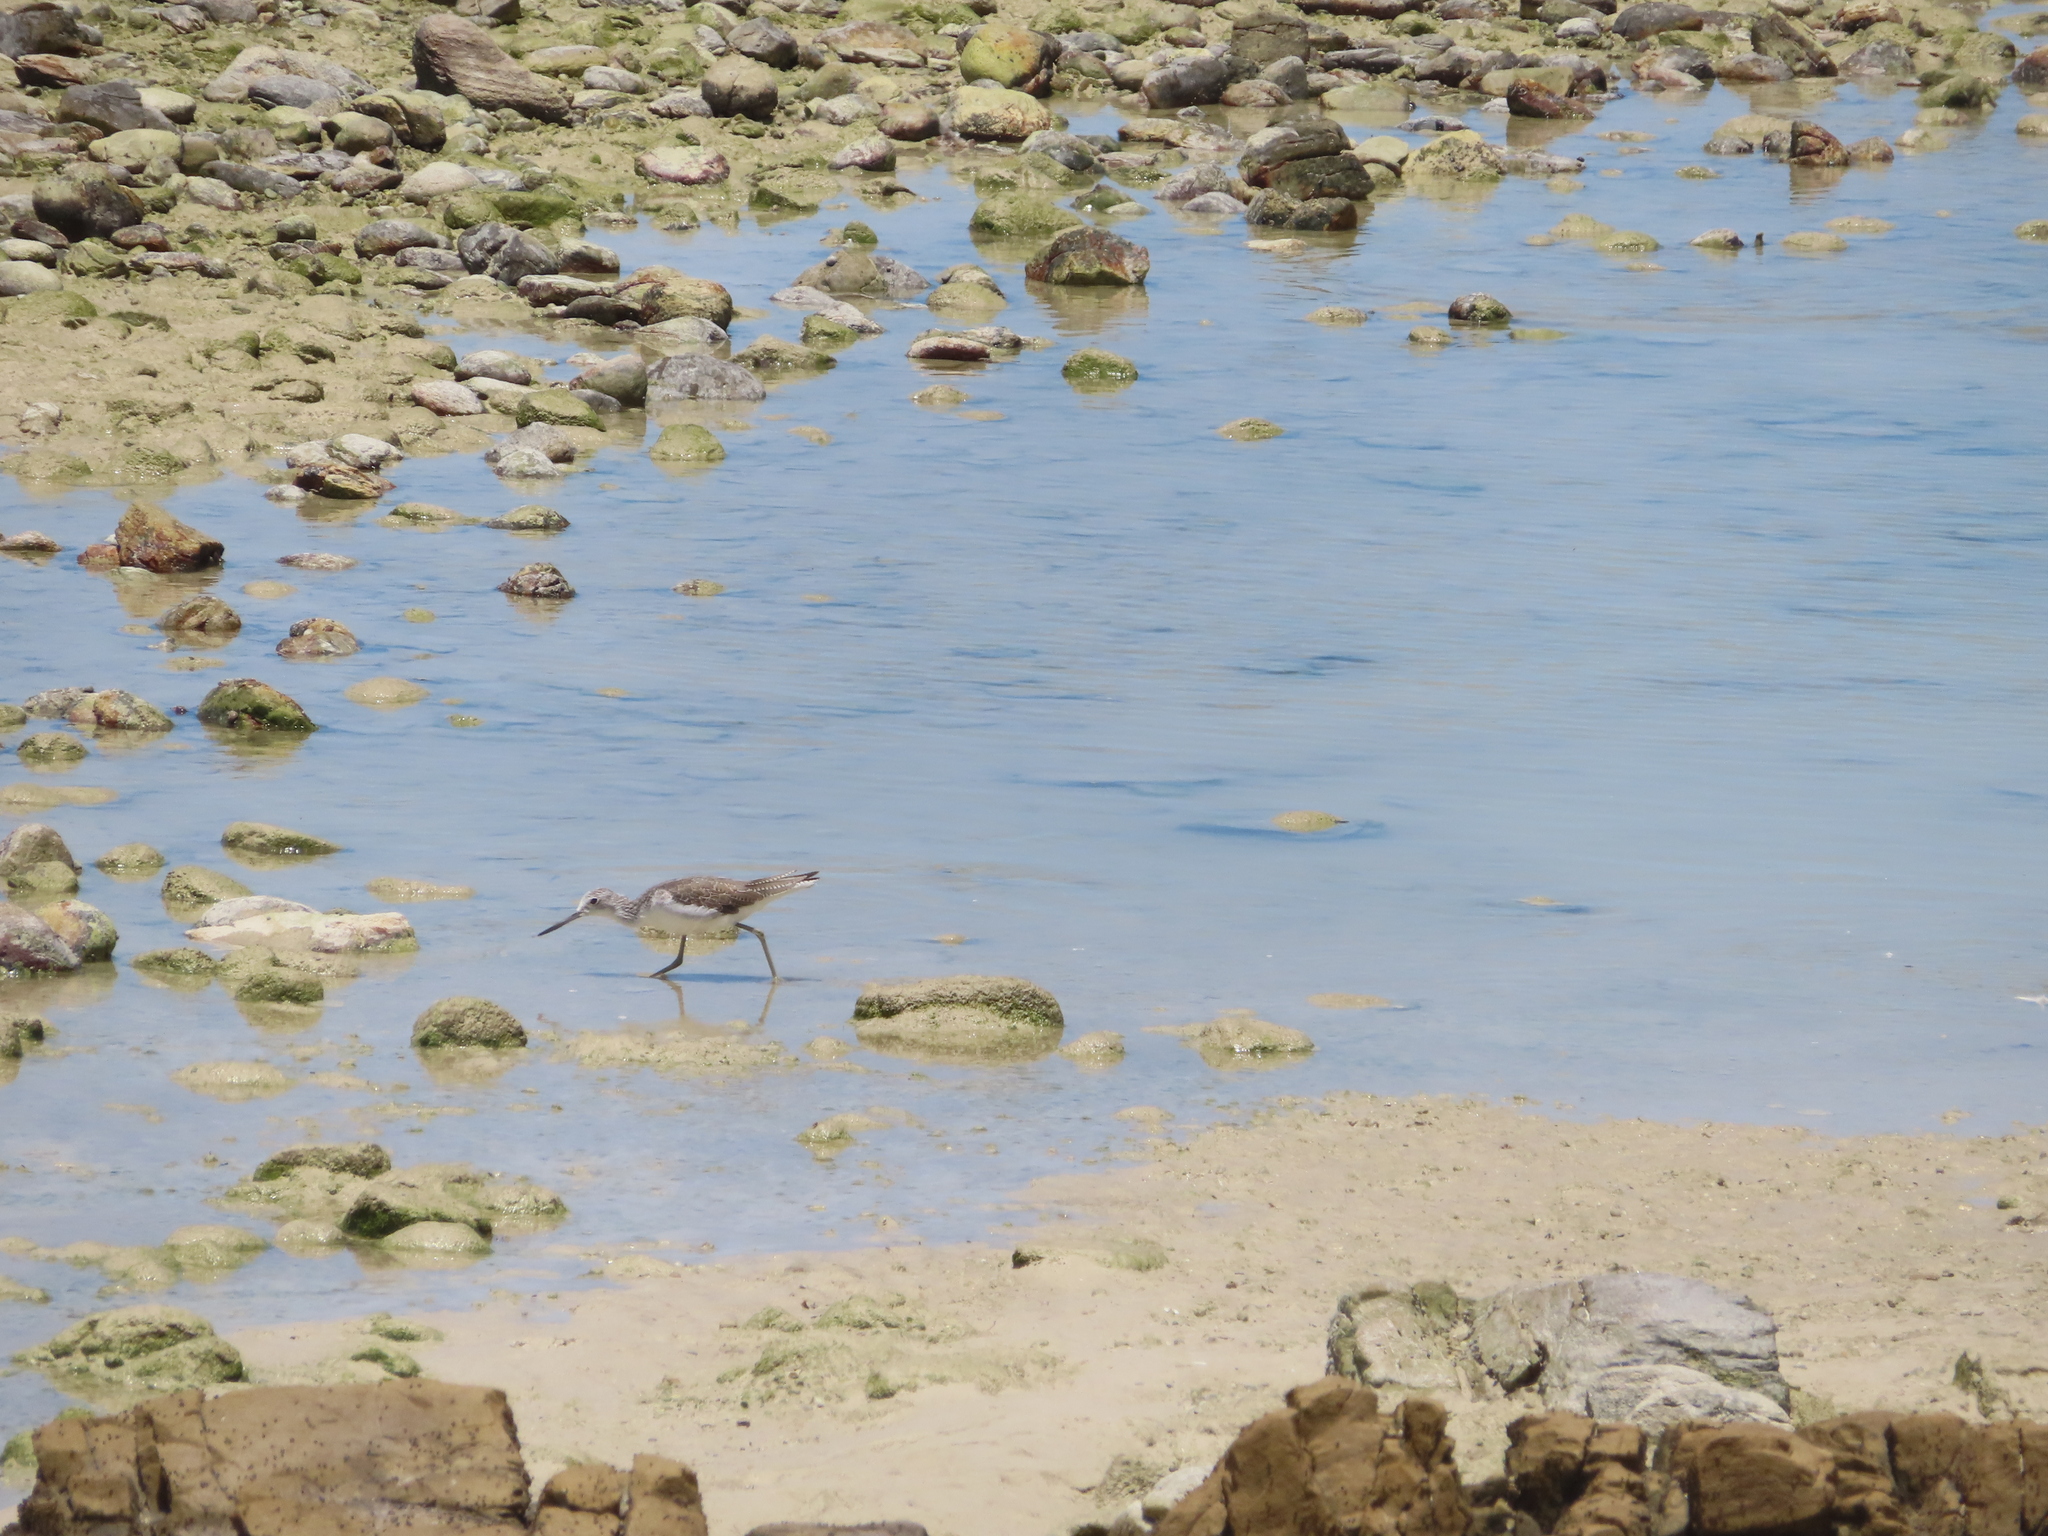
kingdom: Animalia
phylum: Chordata
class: Aves
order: Charadriiformes
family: Scolopacidae
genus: Tringa
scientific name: Tringa nebularia
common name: Common greenshank
